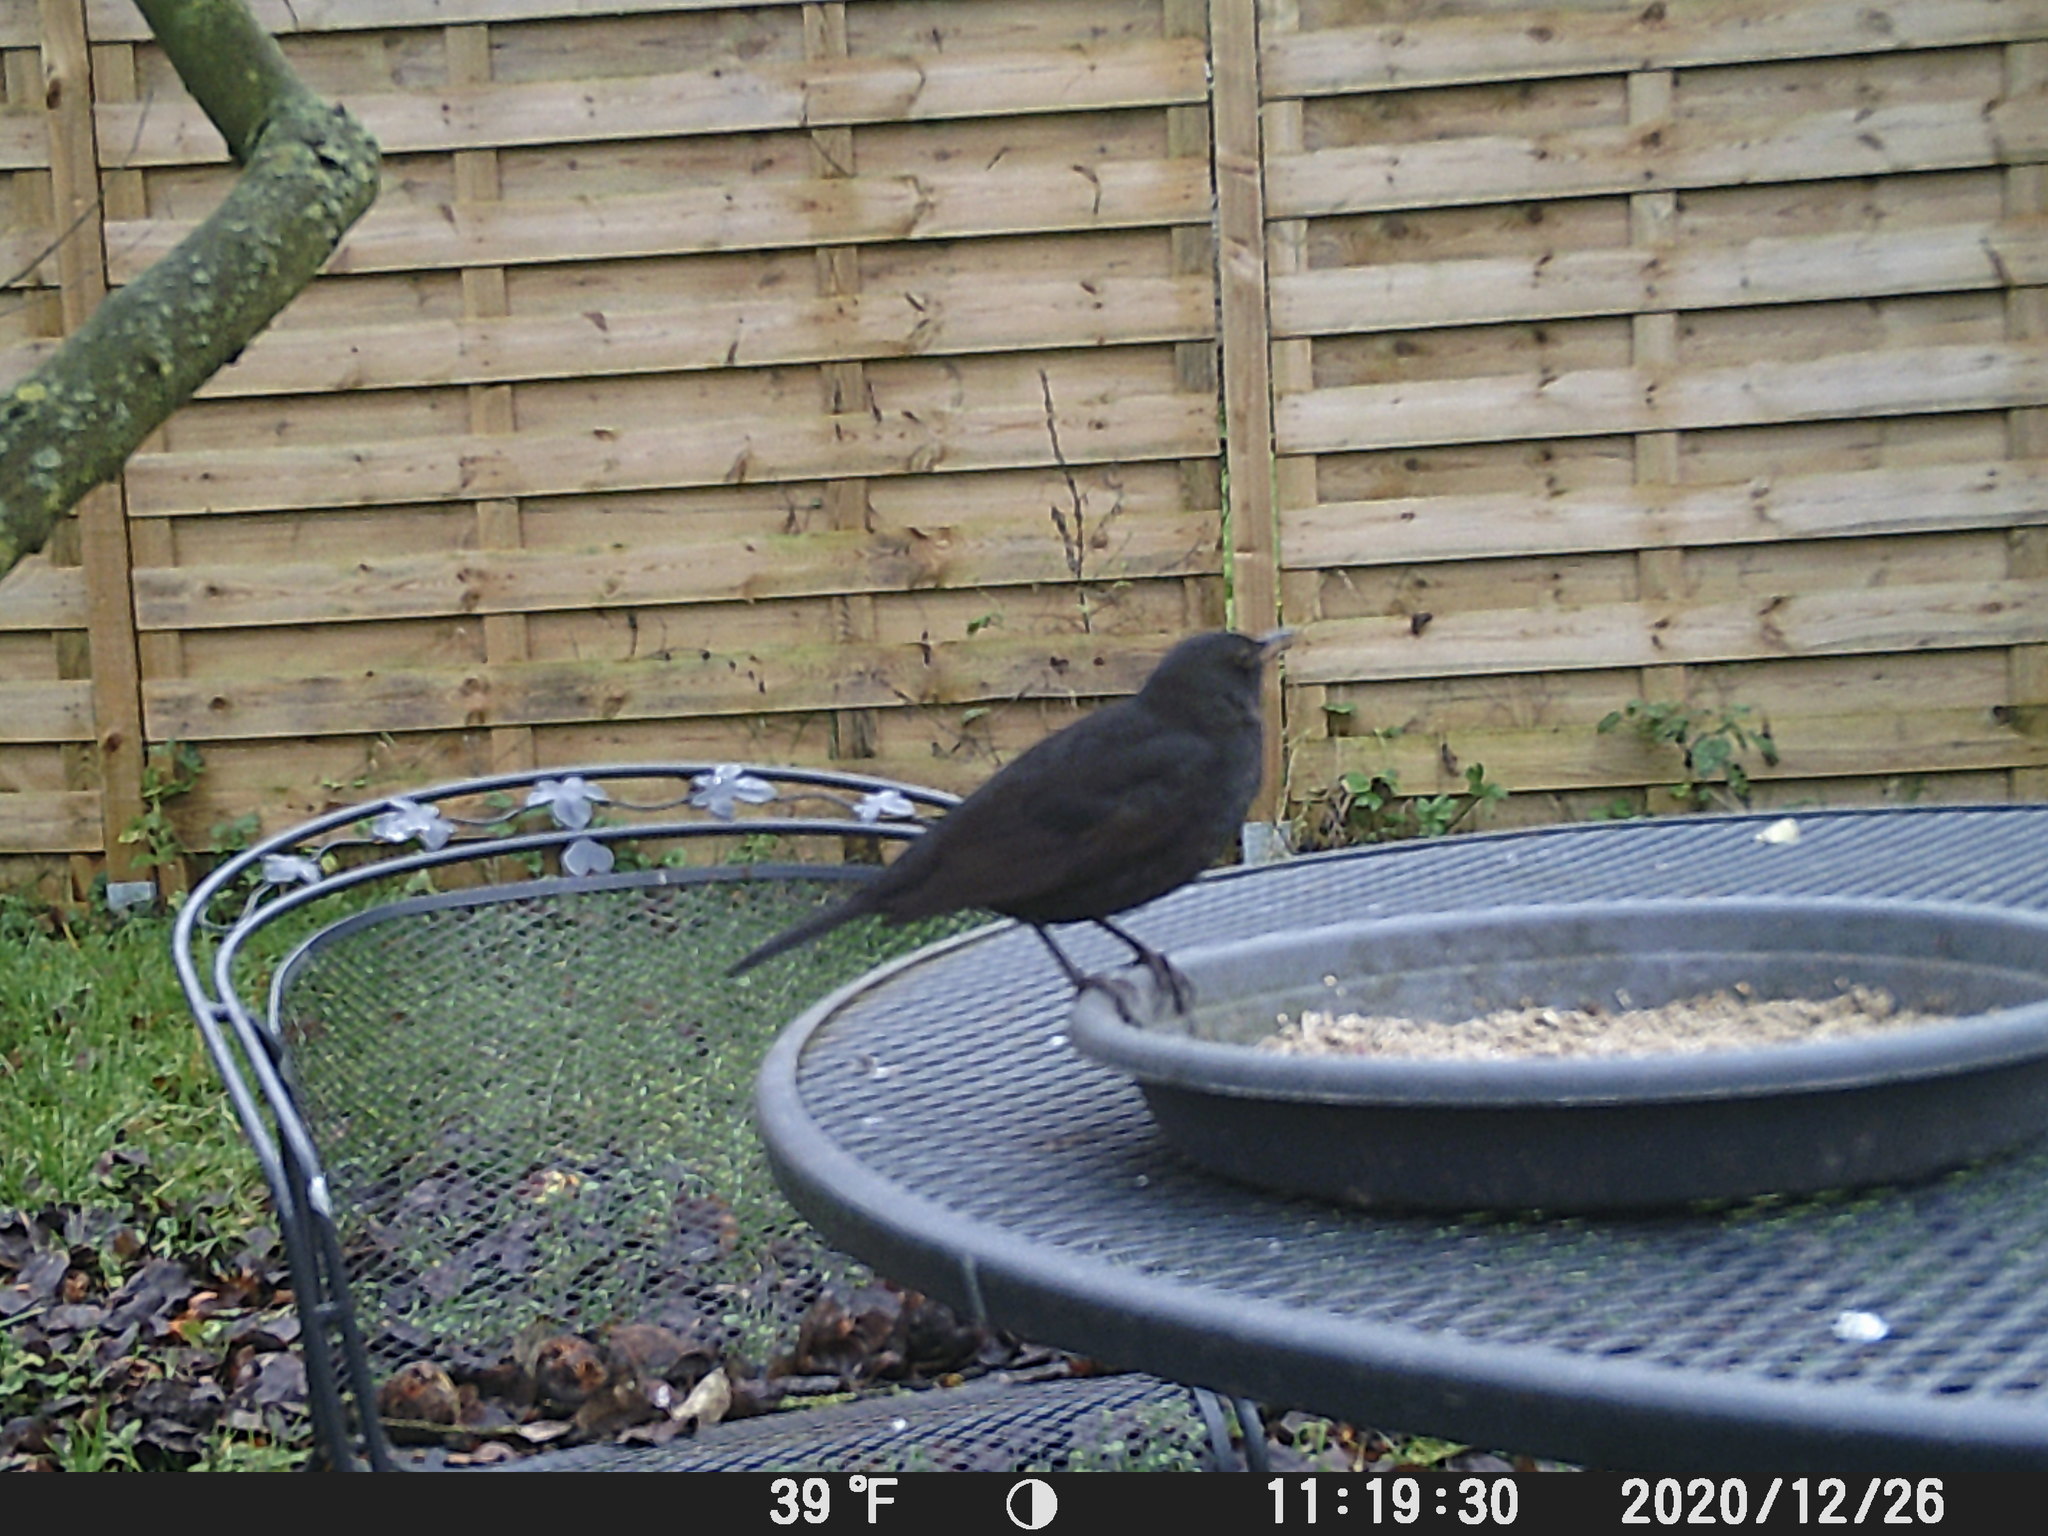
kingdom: Animalia
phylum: Chordata
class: Aves
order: Passeriformes
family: Turdidae
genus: Turdus
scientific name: Turdus merula
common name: Common blackbird
